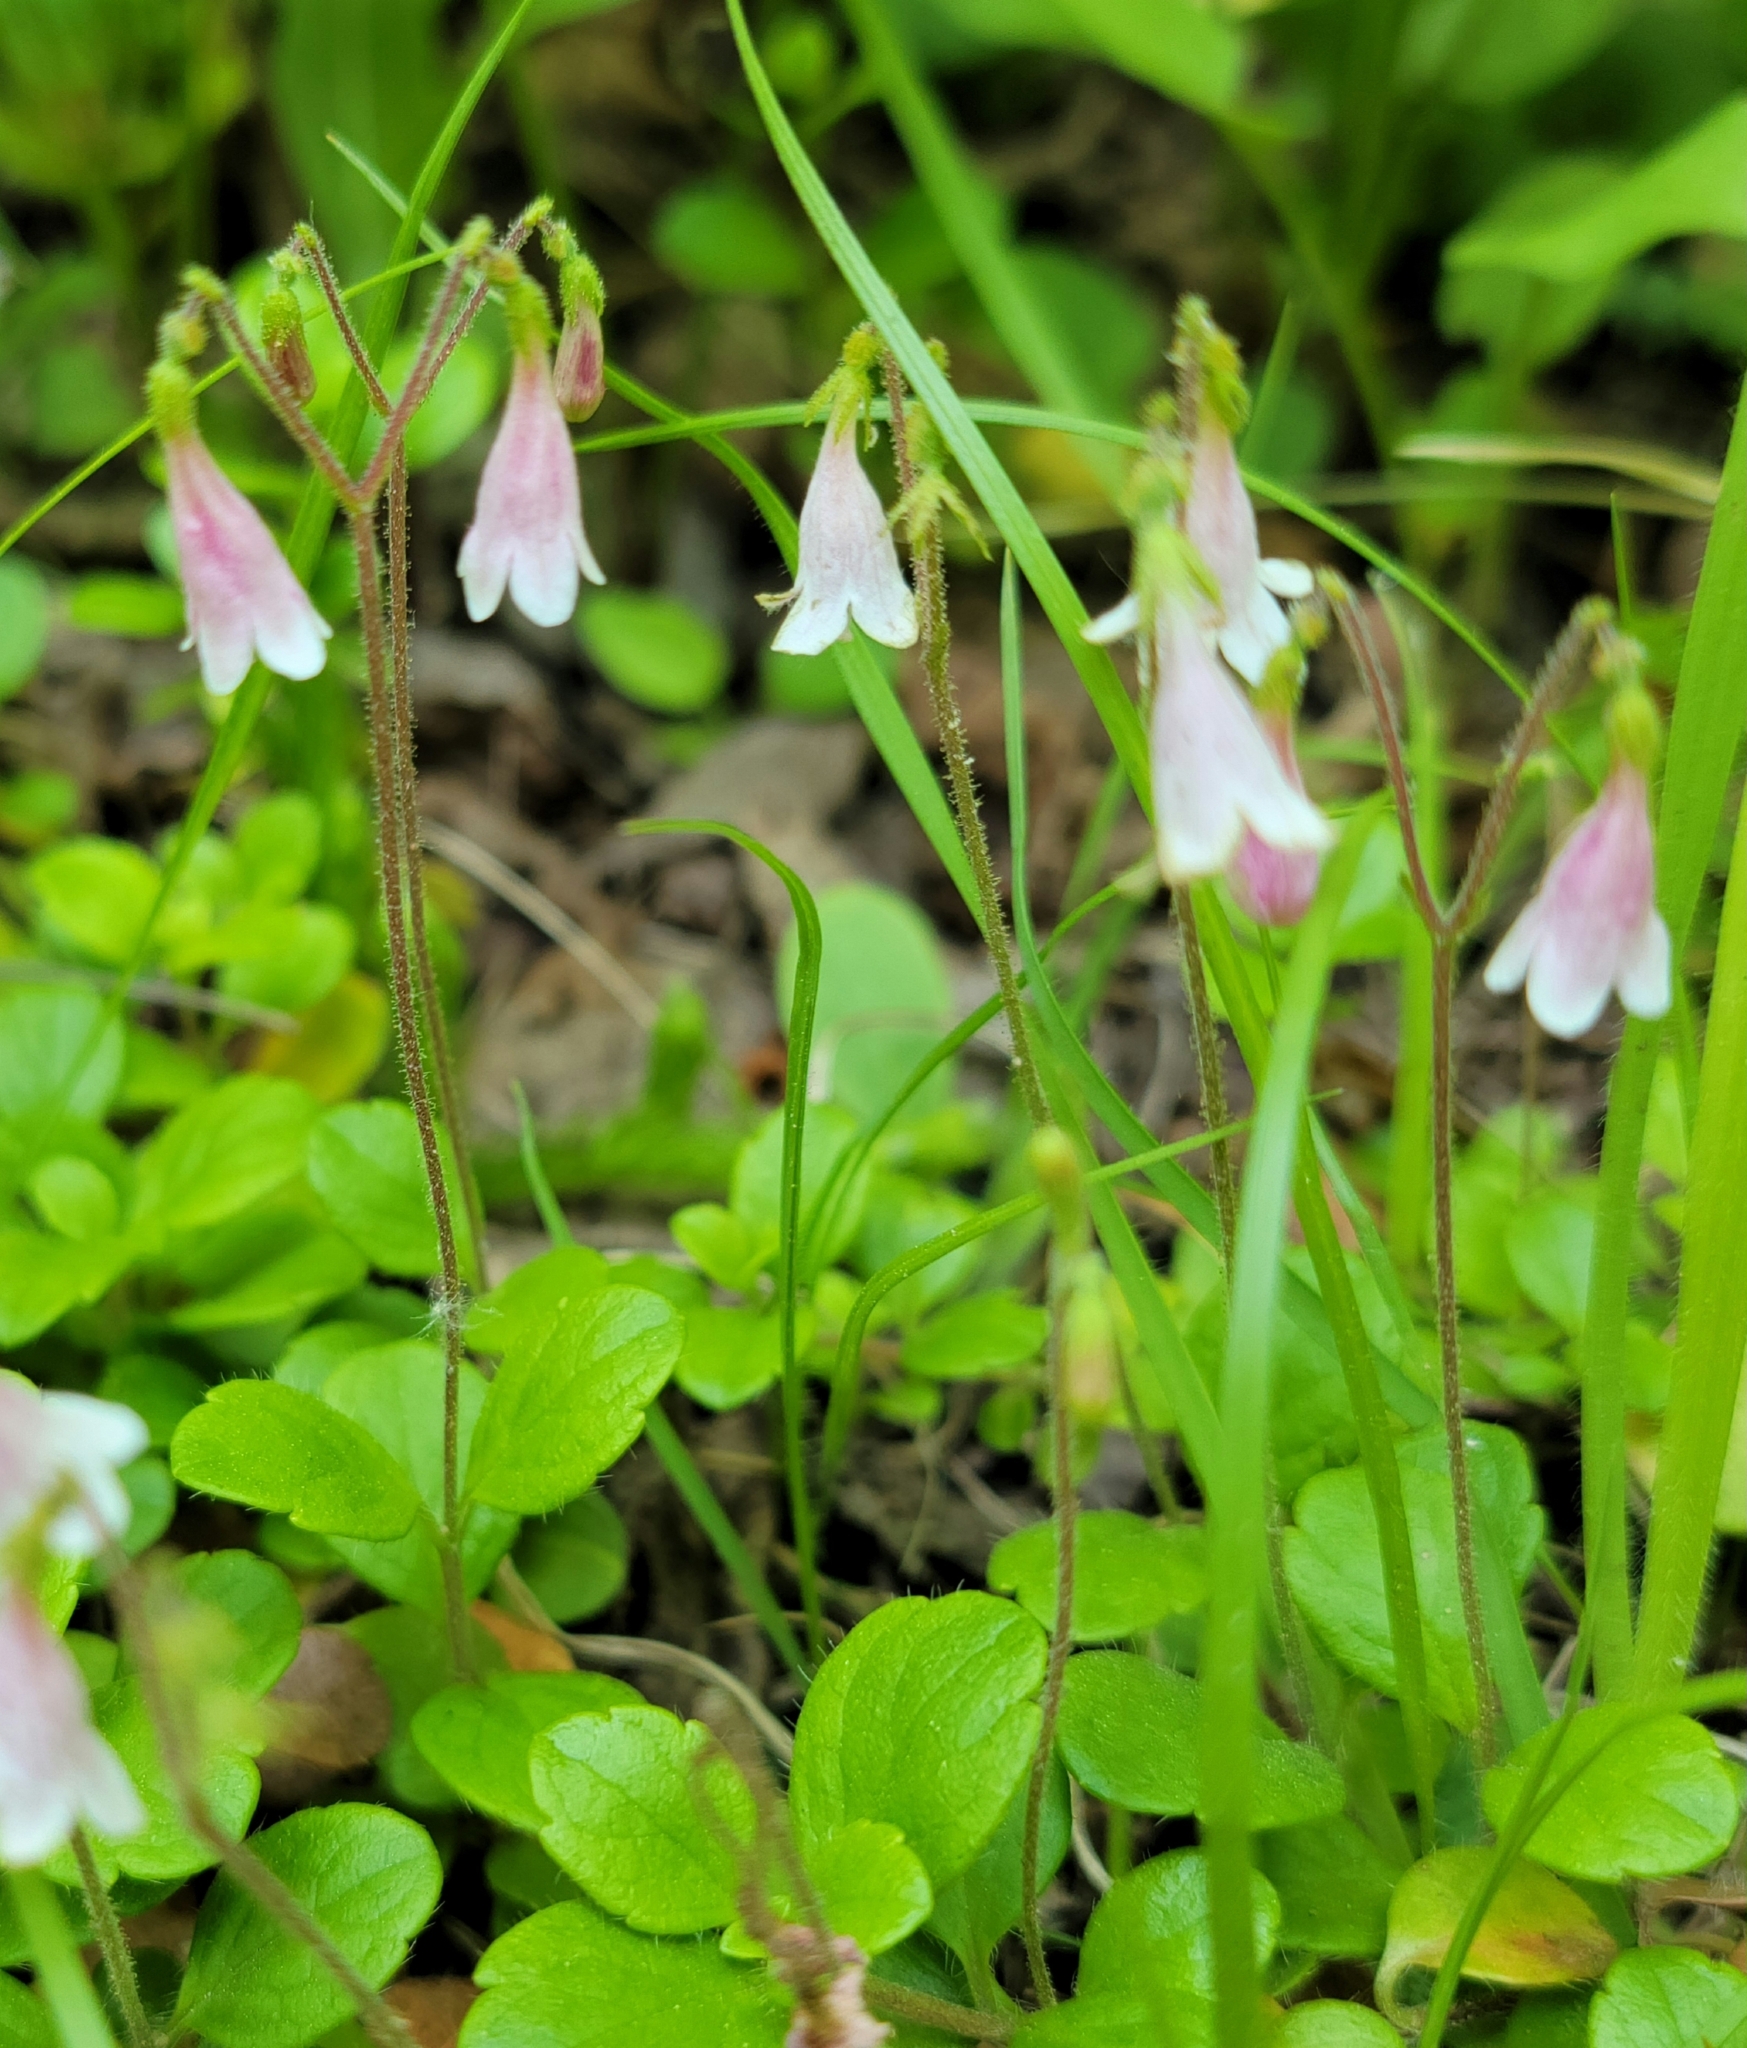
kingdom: Plantae
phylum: Tracheophyta
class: Magnoliopsida
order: Dipsacales
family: Caprifoliaceae
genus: Linnaea
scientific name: Linnaea borealis
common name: Twinflower
